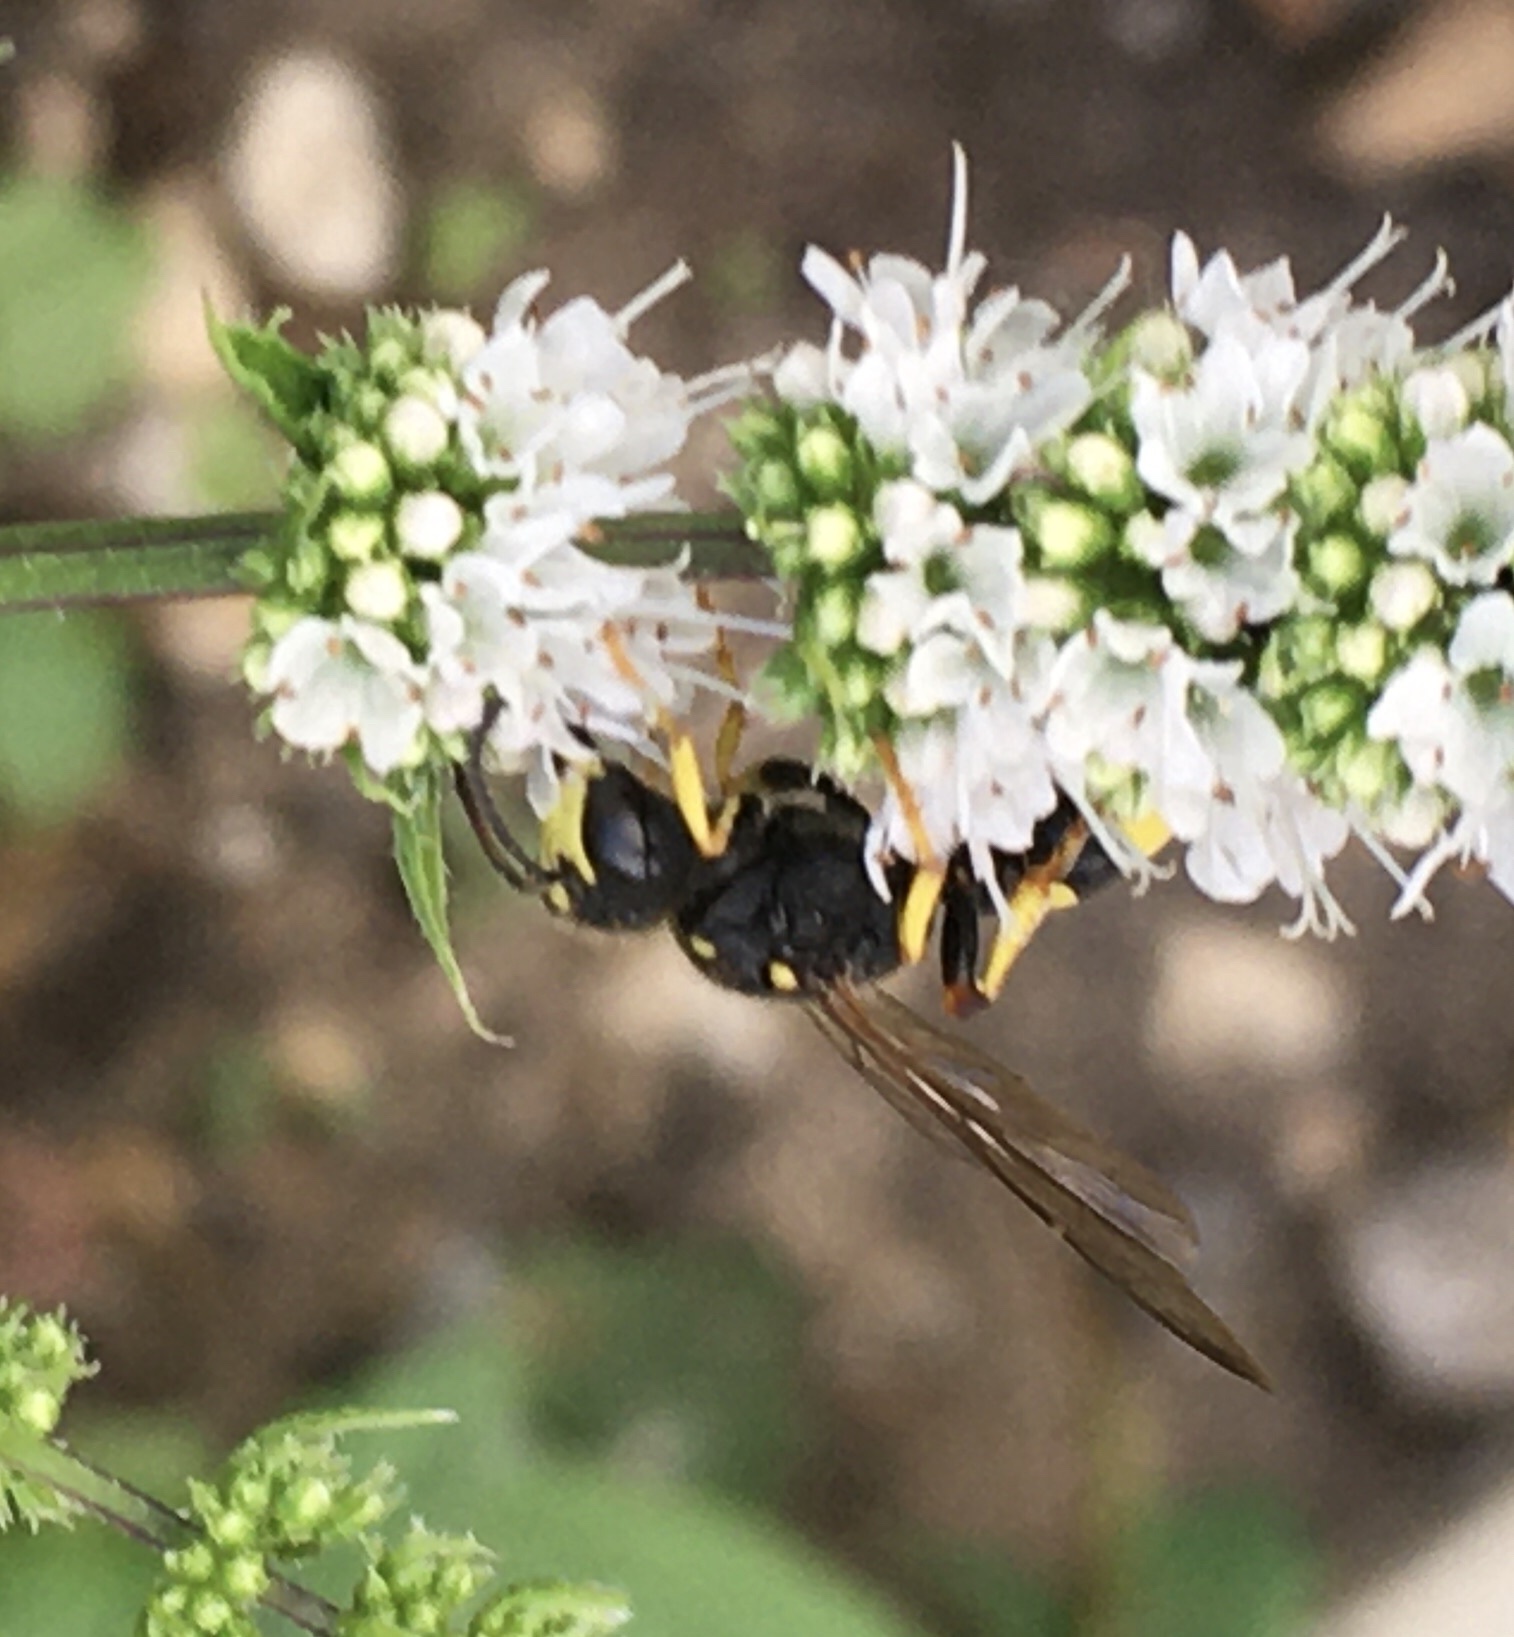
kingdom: Animalia
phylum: Arthropoda
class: Insecta
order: Hymenoptera
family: Crabronidae
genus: Cerceris
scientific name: Cerceris rybyensis
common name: Ornate tailed digger wasp
